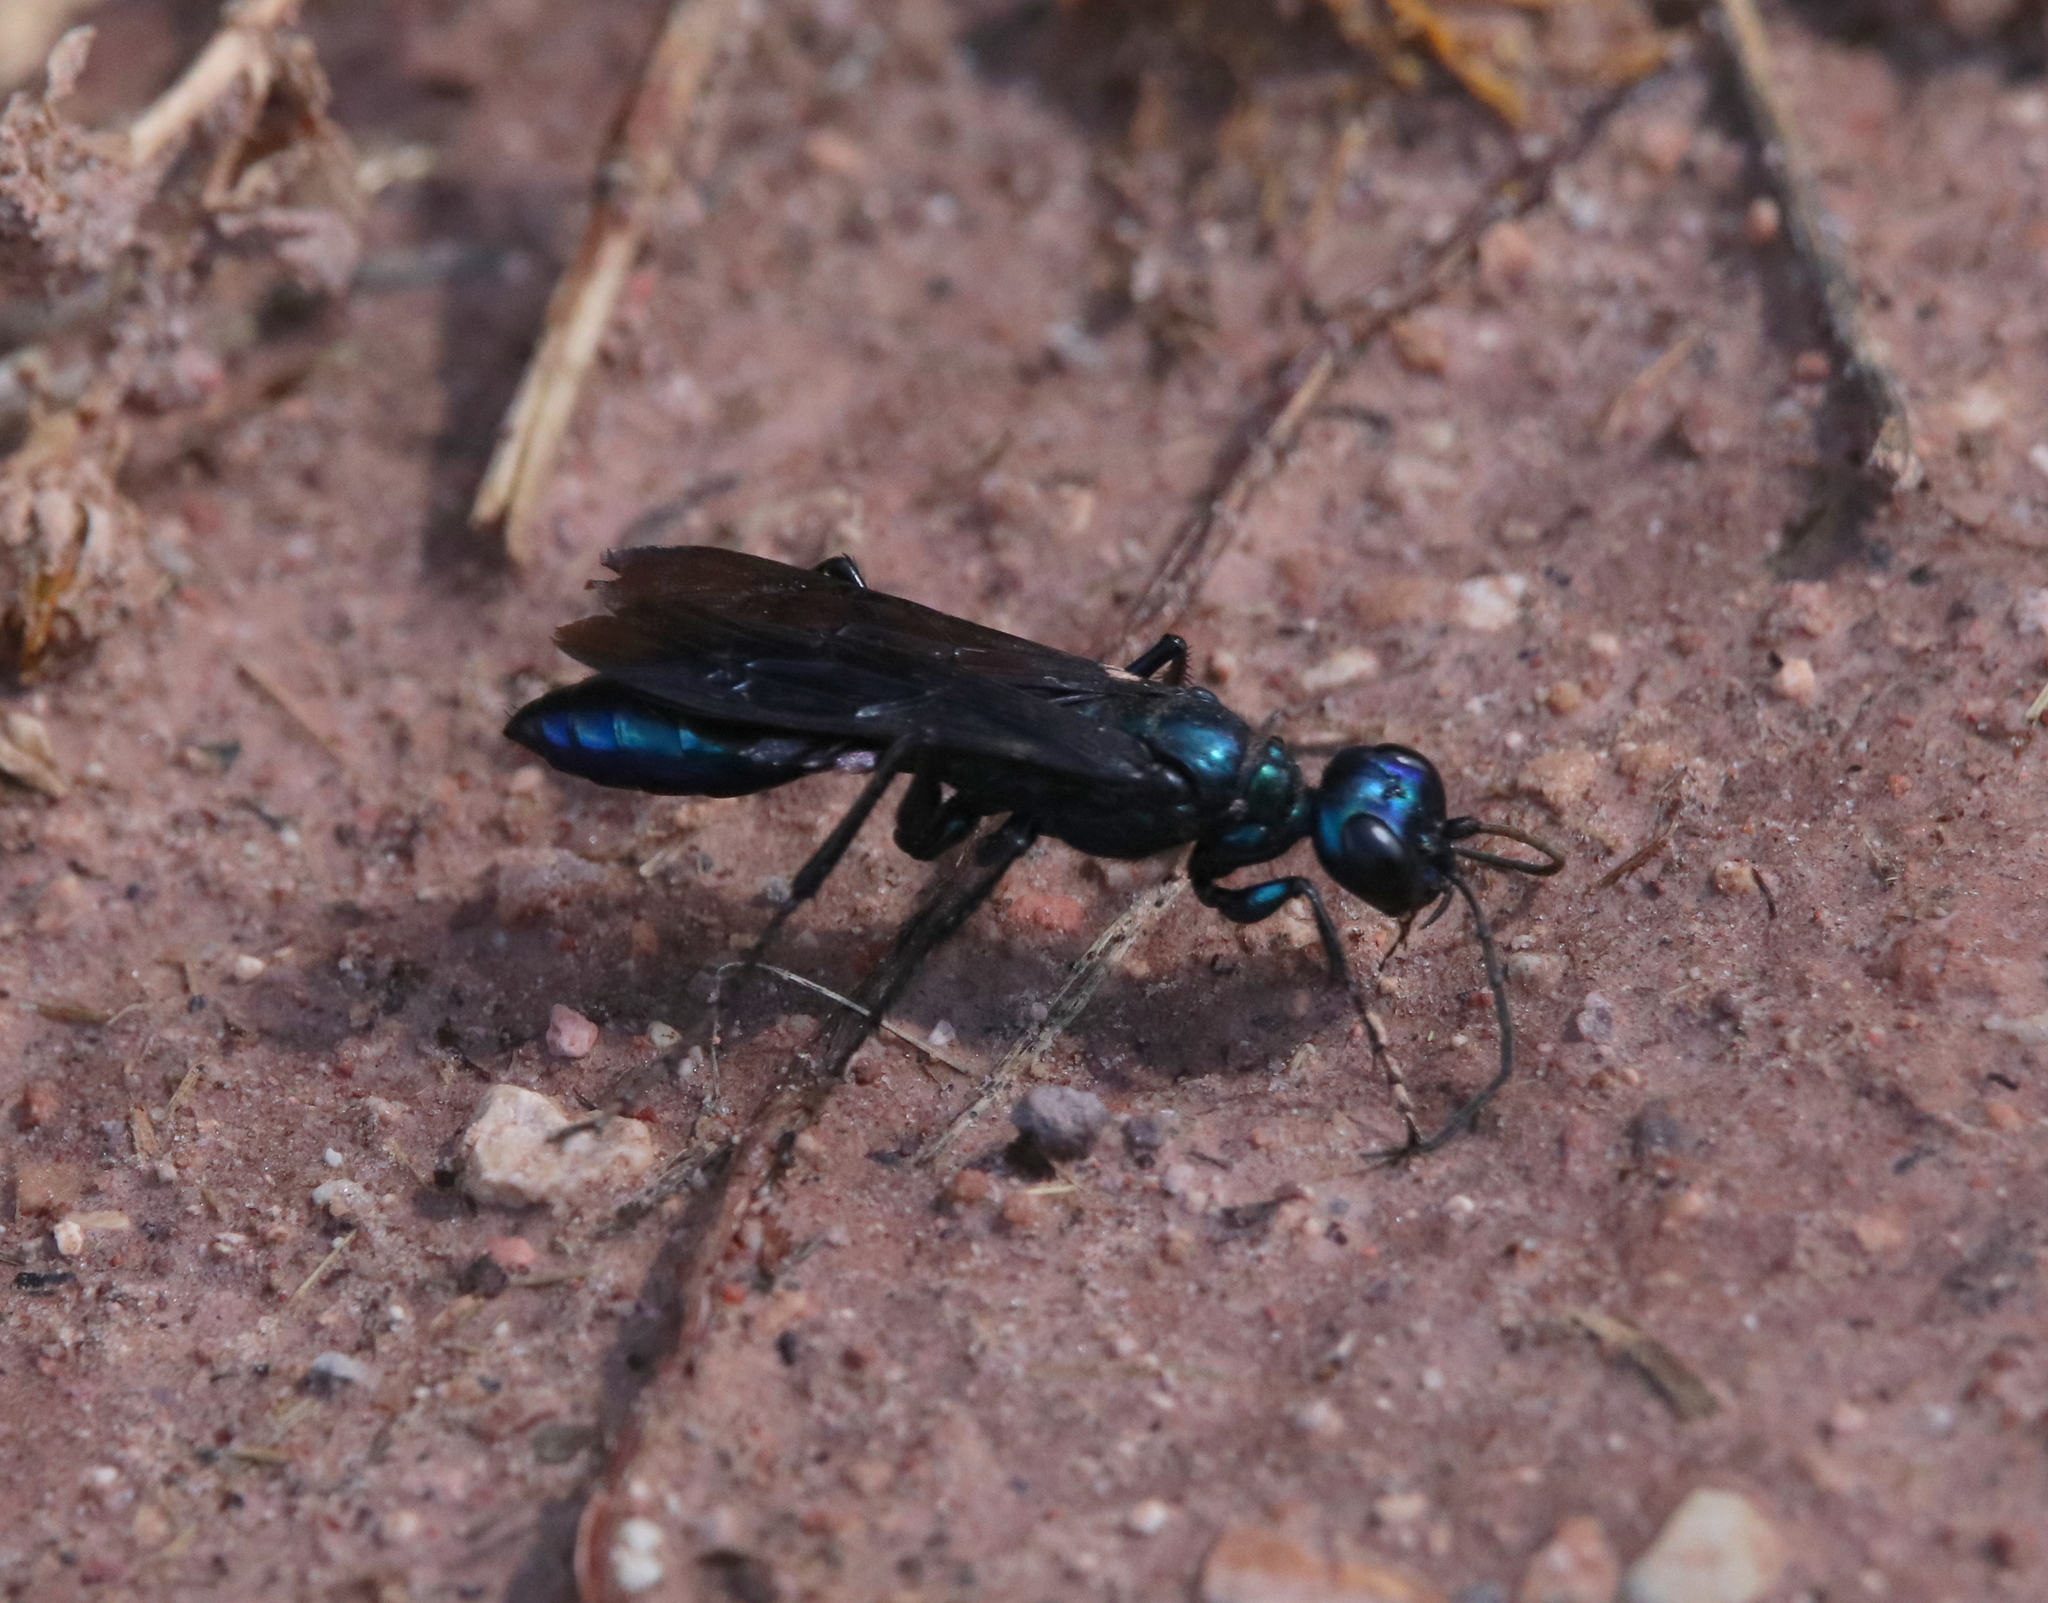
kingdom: Animalia
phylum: Arthropoda
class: Insecta
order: Hymenoptera
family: Sphecidae
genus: Chlorion
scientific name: Chlorion aerarium
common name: Steel-blue cricket hunter
